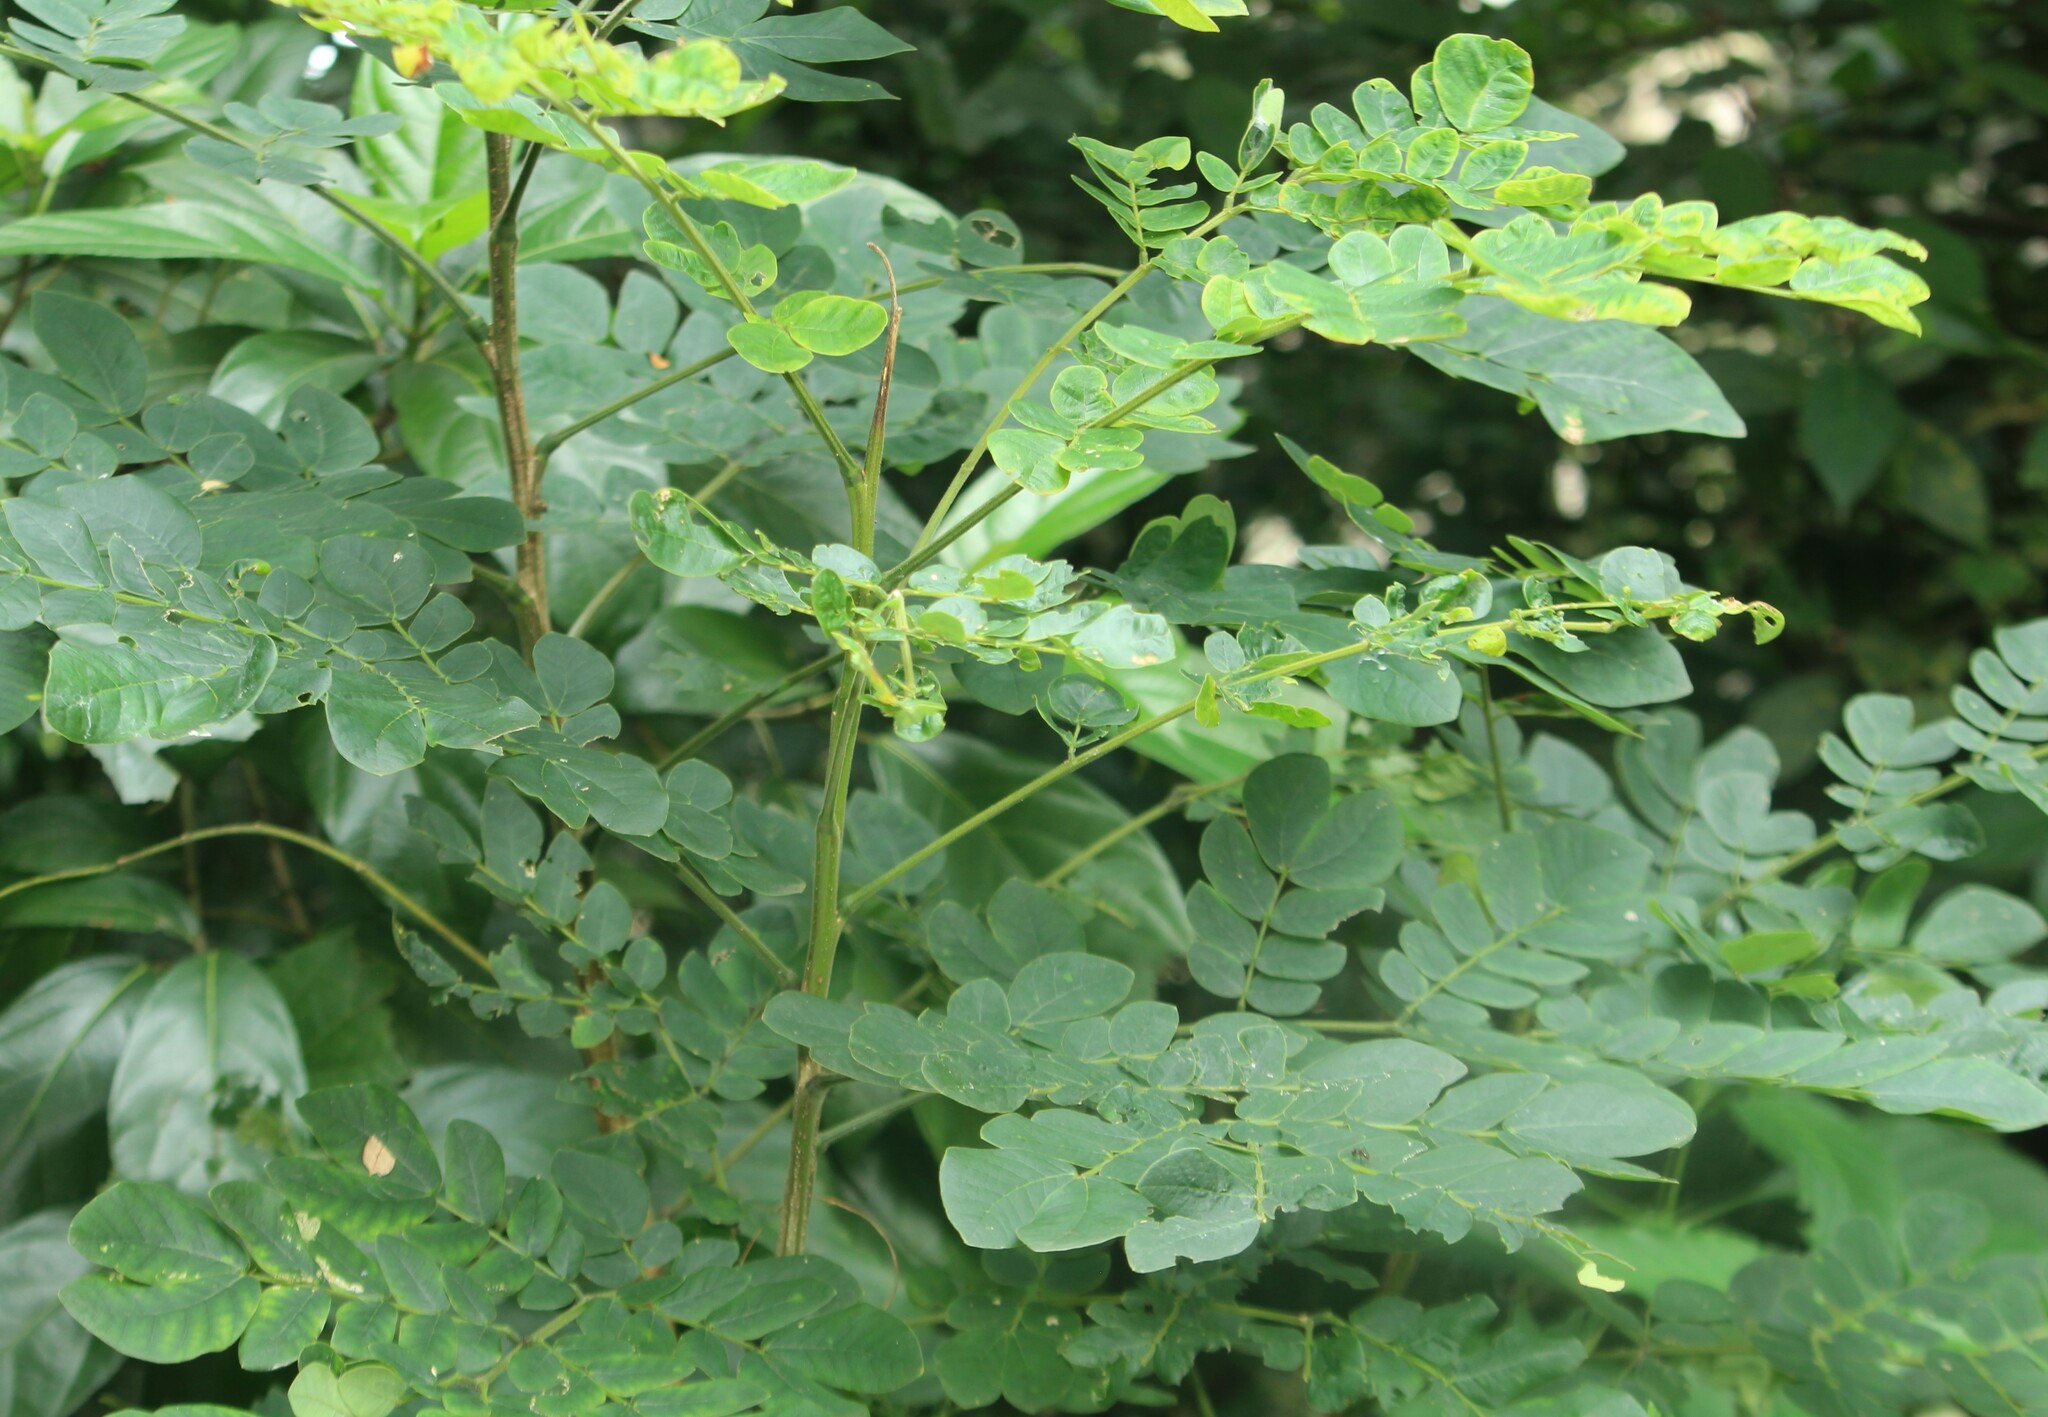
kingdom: Plantae
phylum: Tracheophyta
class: Magnoliopsida
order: Fabales
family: Fabaceae
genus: Samanea
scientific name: Samanea saman
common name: Raintree
